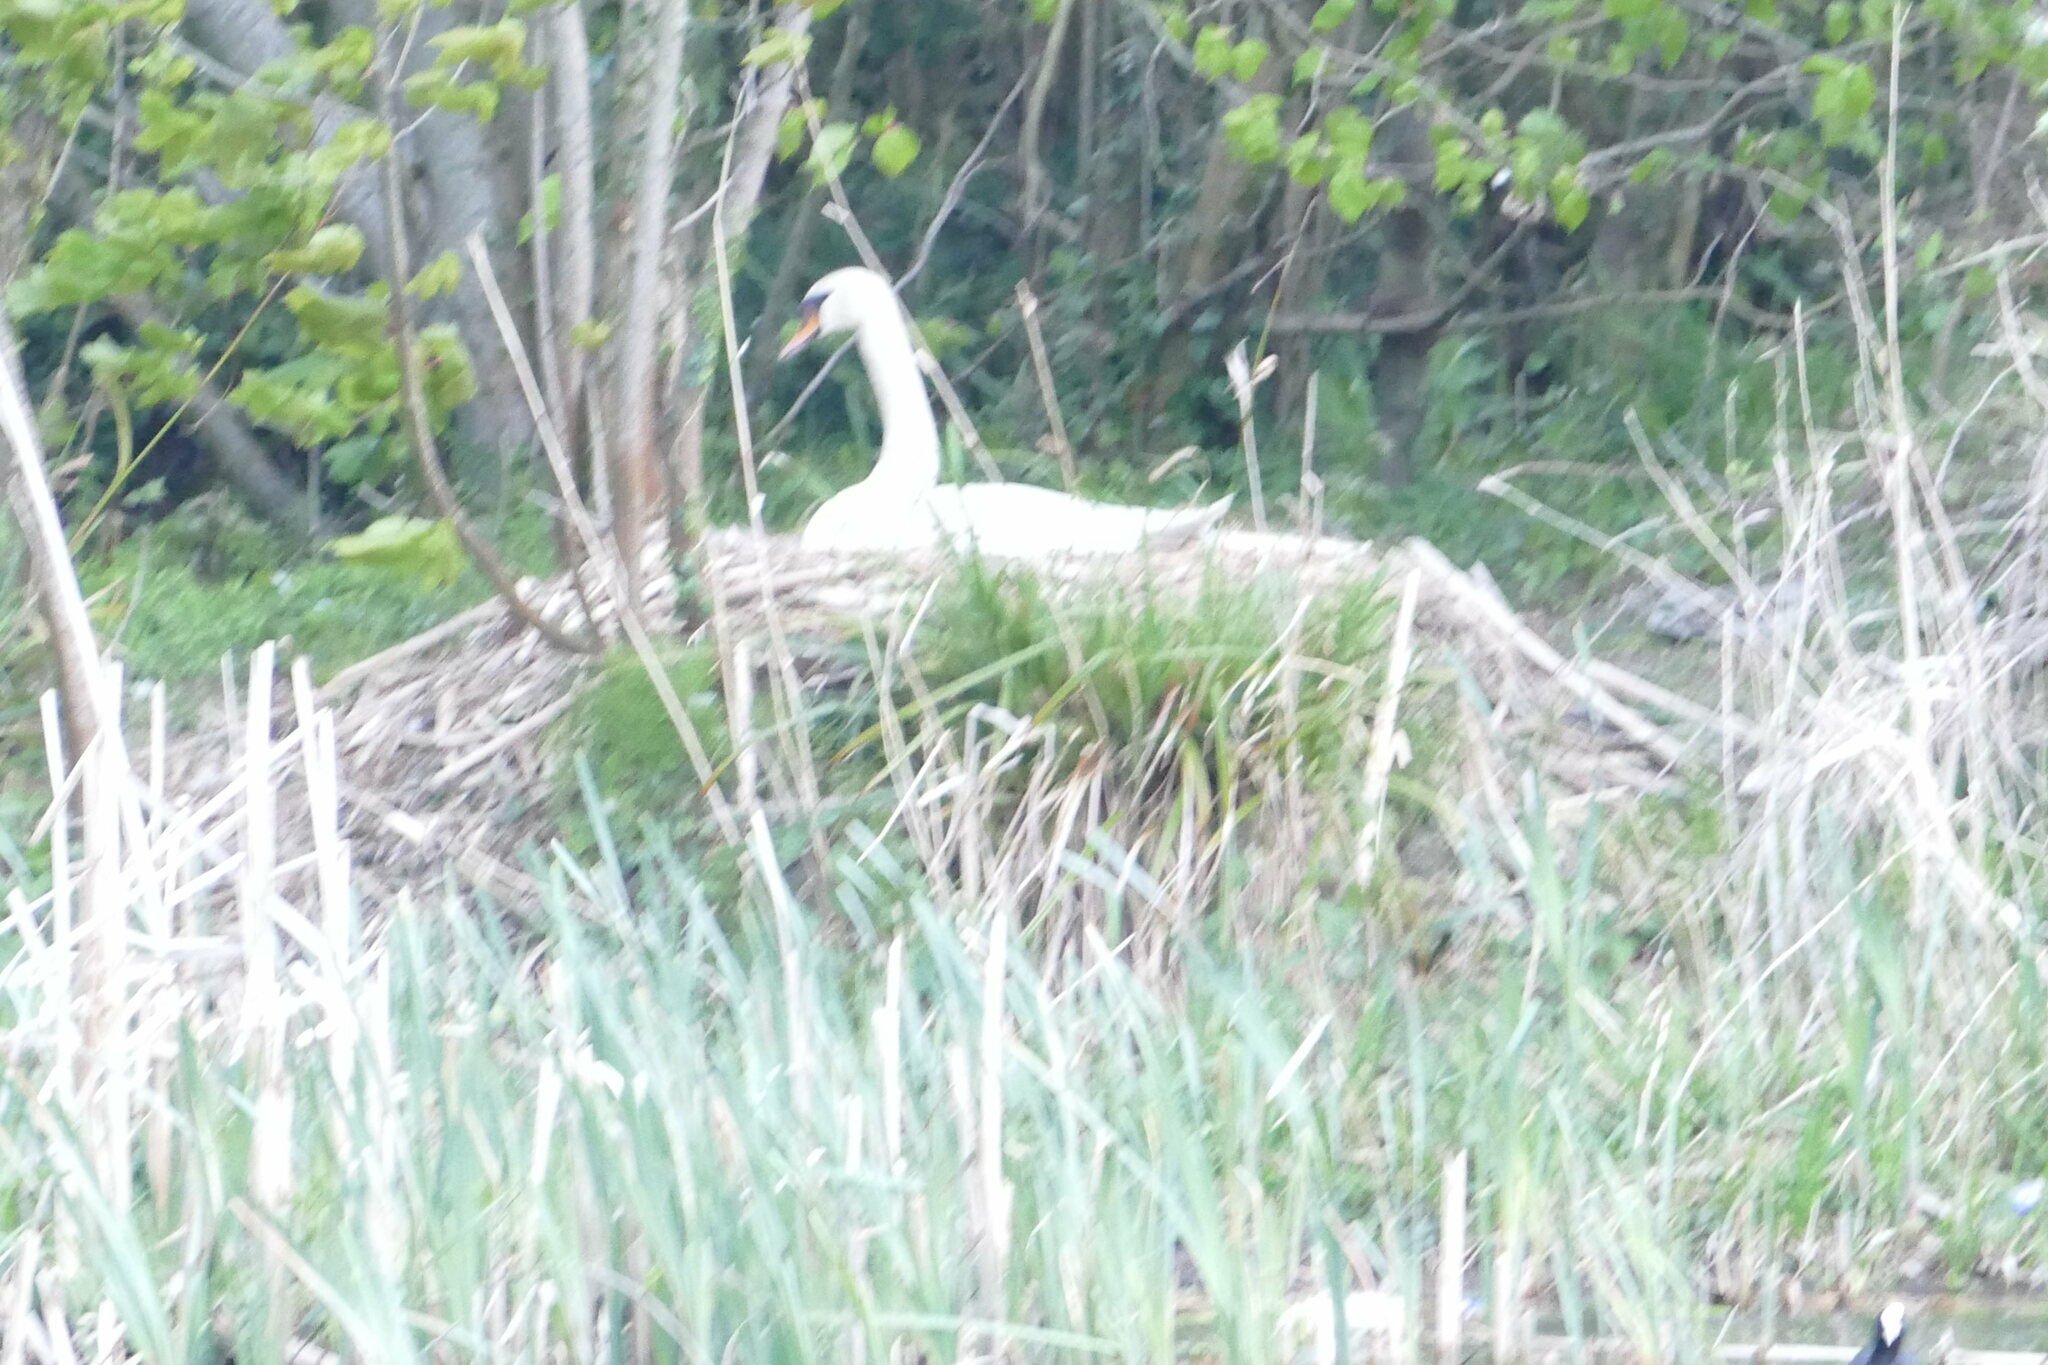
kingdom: Animalia
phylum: Chordata
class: Aves
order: Anseriformes
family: Anatidae
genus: Cygnus
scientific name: Cygnus olor
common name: Mute swan
